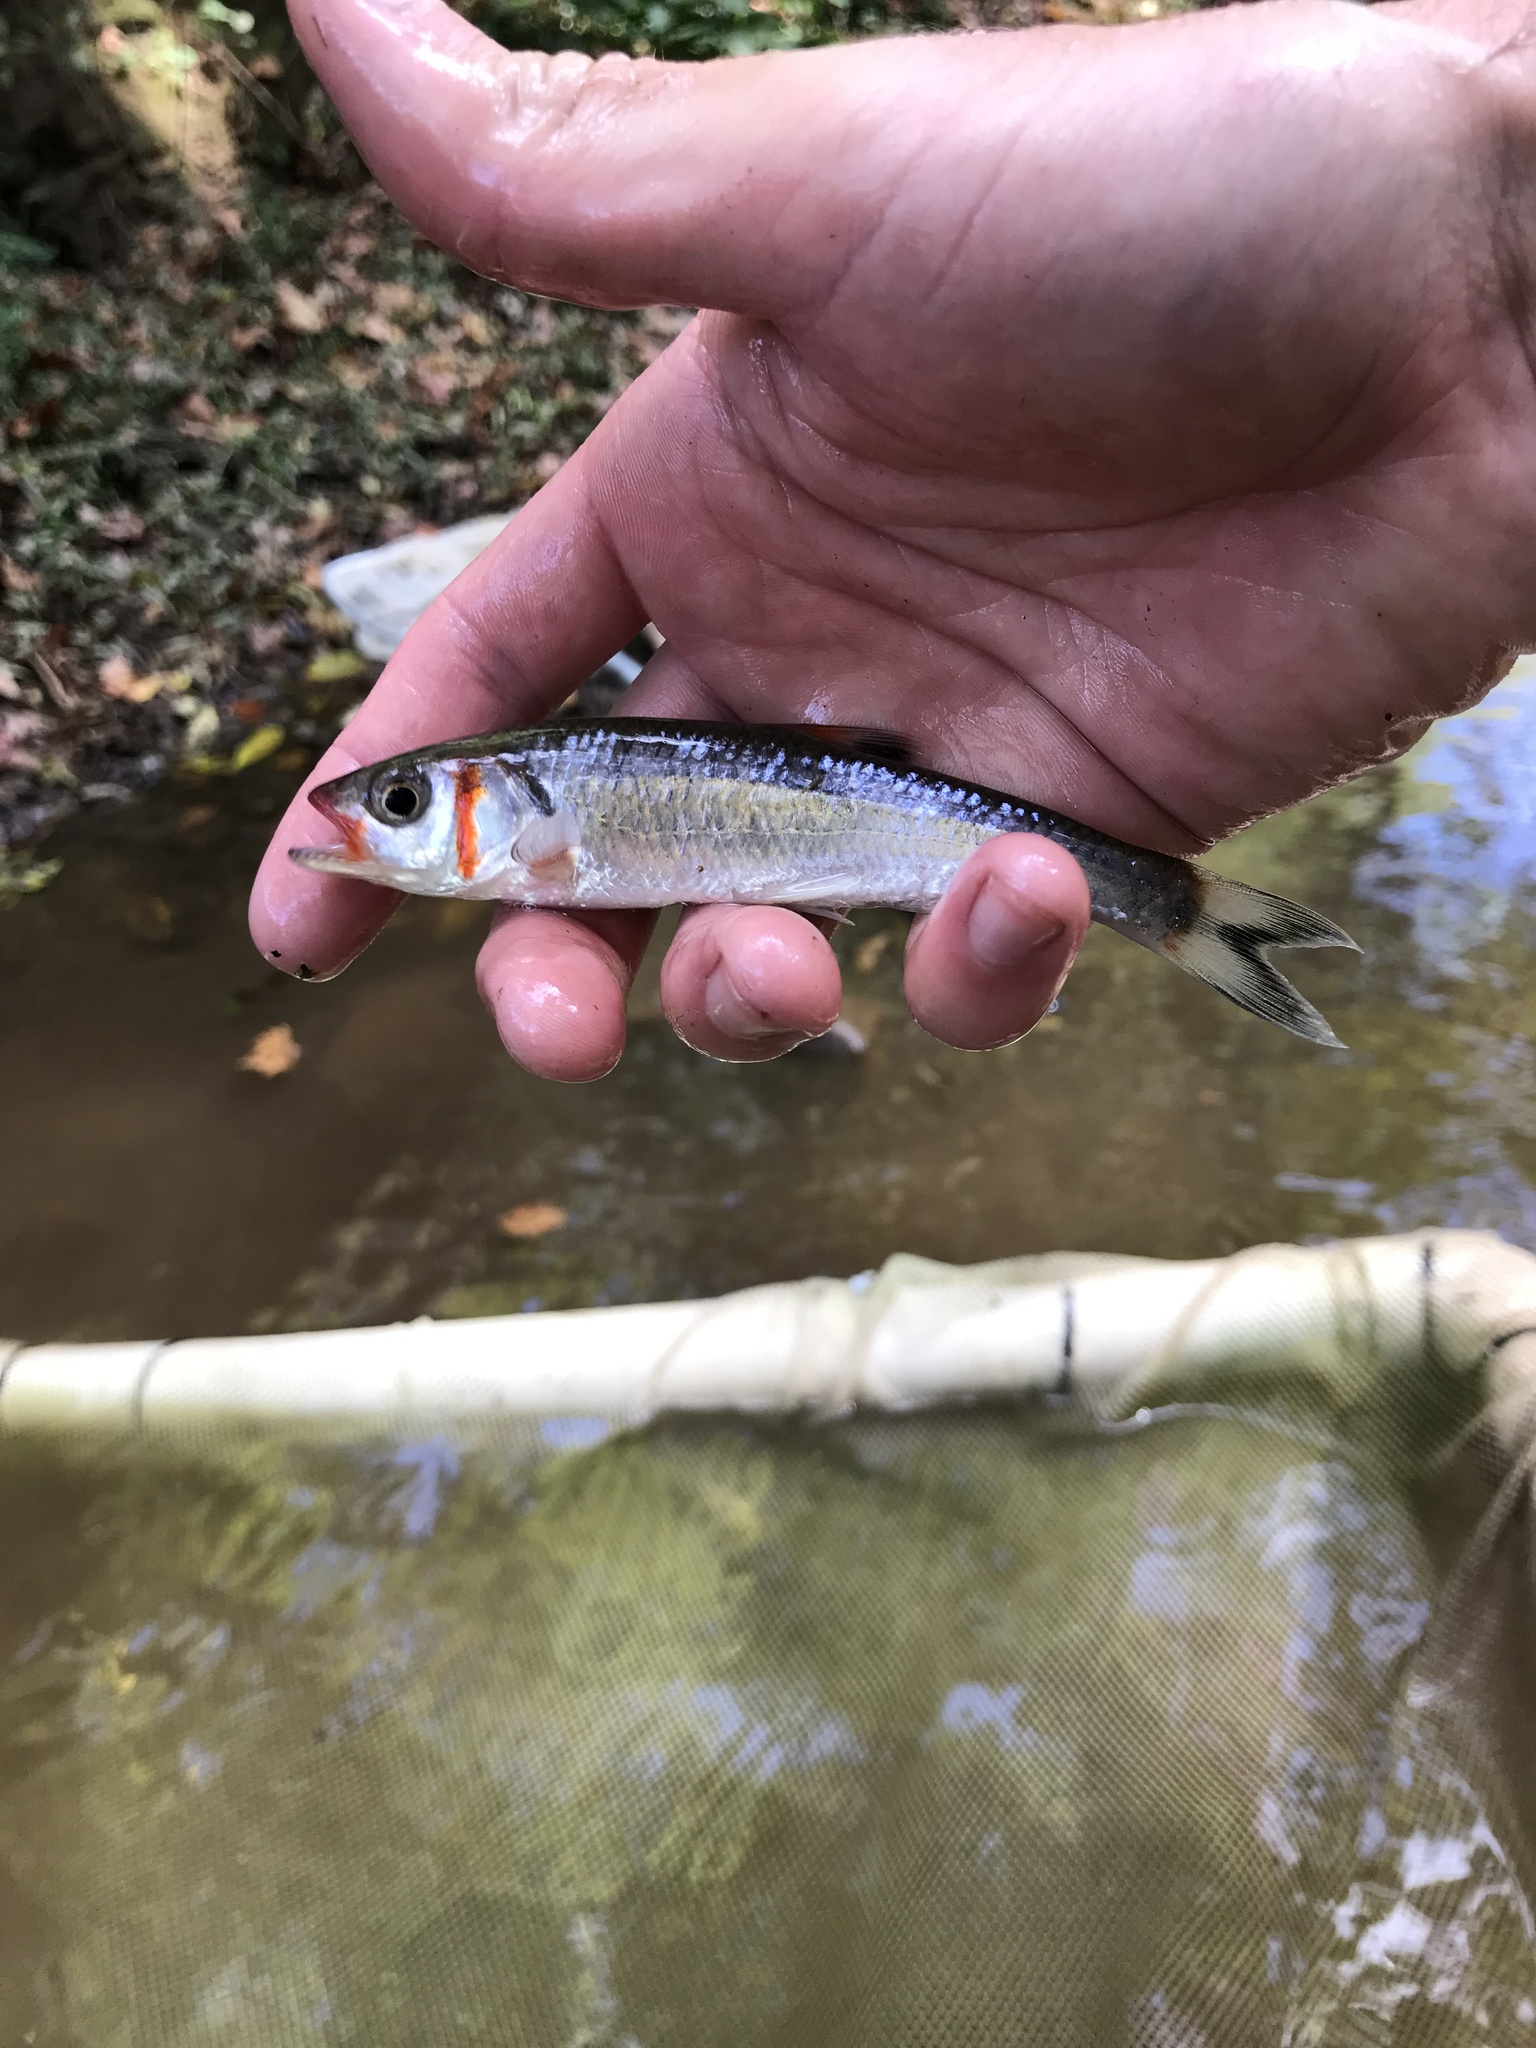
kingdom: Animalia
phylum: Chordata
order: Cypriniformes
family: Cyprinidae
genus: Luxilus
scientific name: Luxilus
